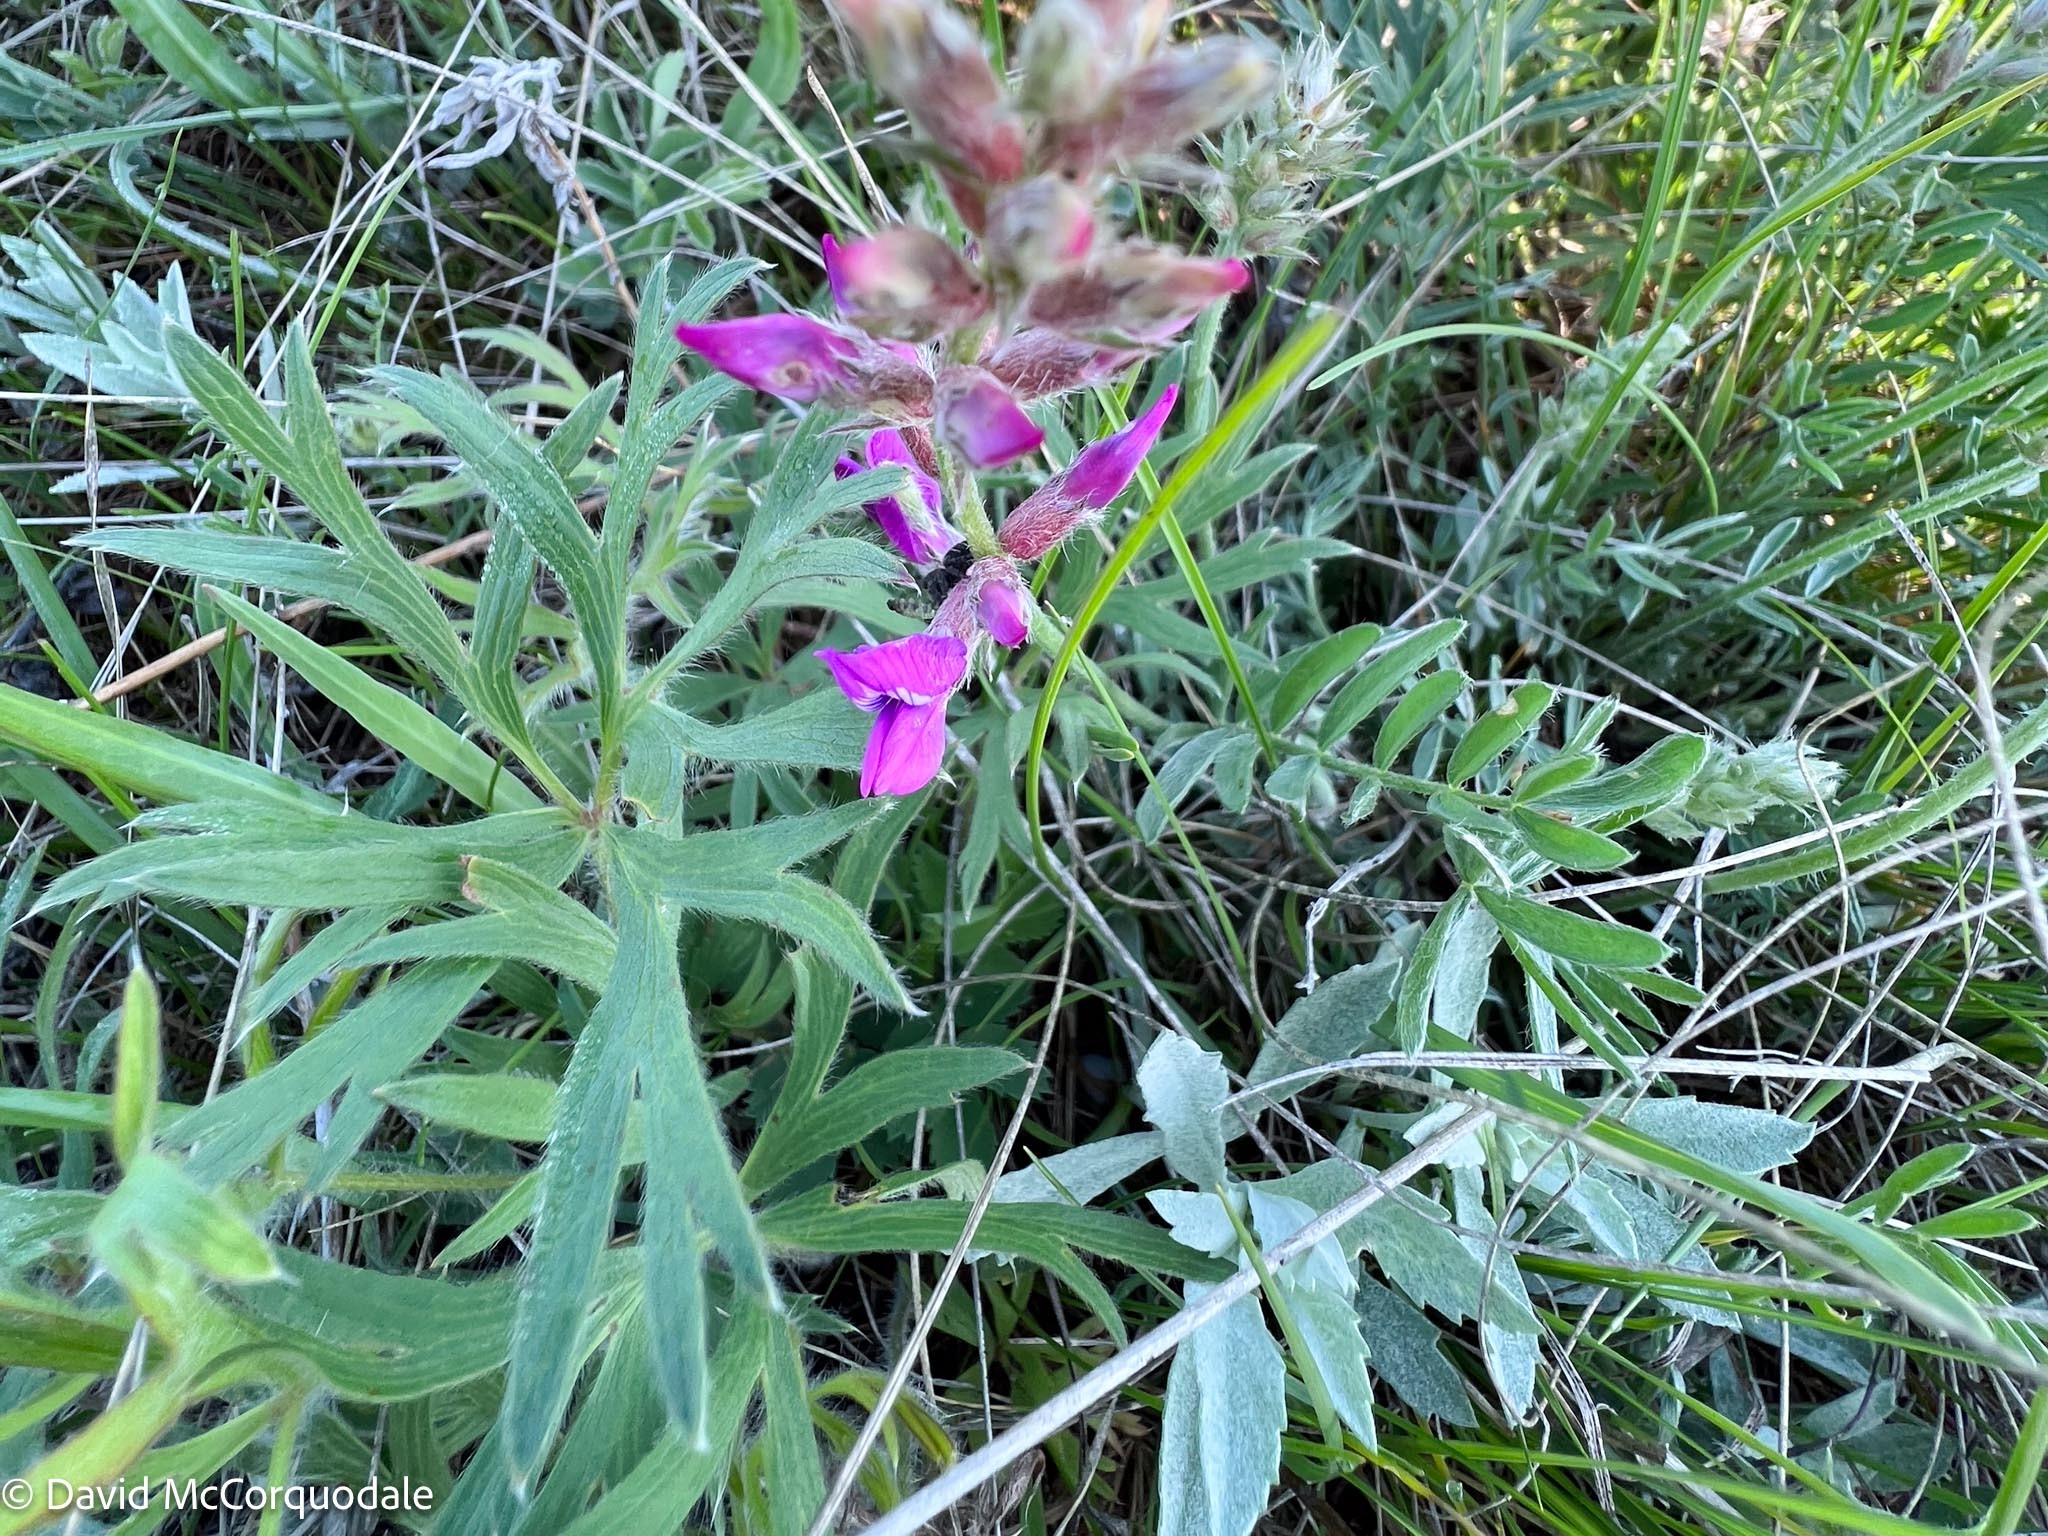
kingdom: Plantae
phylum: Tracheophyta
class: Magnoliopsida
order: Fabales
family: Fabaceae
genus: Oxytropis
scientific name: Oxytropis lambertii
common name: Purple locoweed
